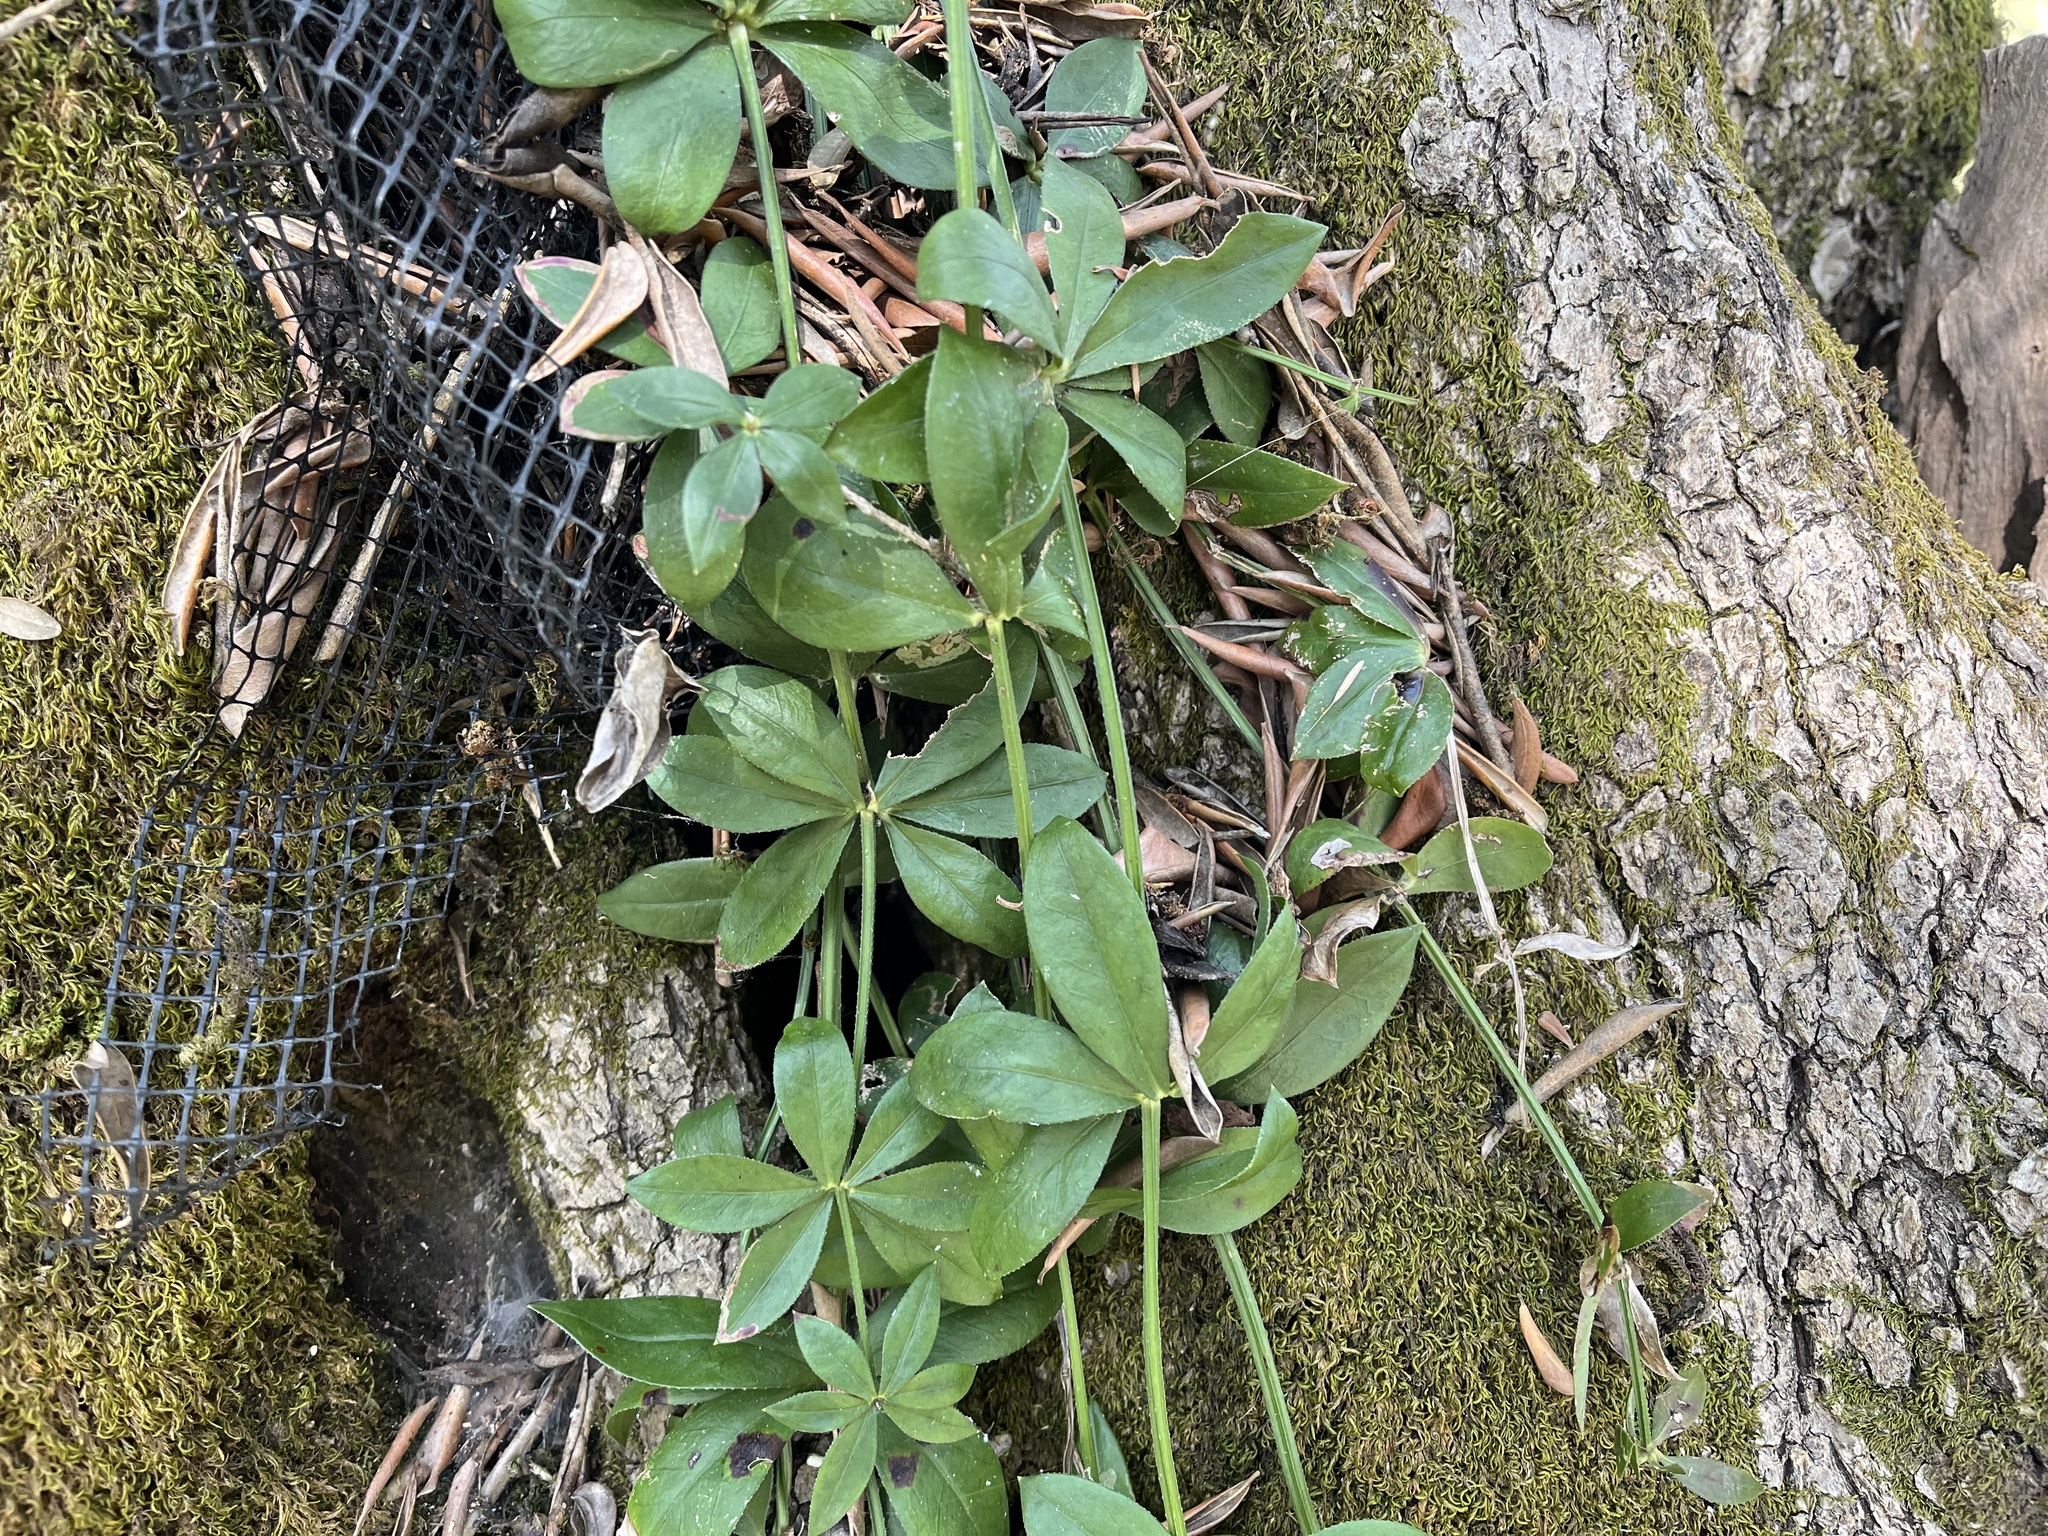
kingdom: Plantae
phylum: Tracheophyta
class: Magnoliopsida
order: Gentianales
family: Rubiaceae
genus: Rubia
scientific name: Rubia peregrina
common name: Wild madder
